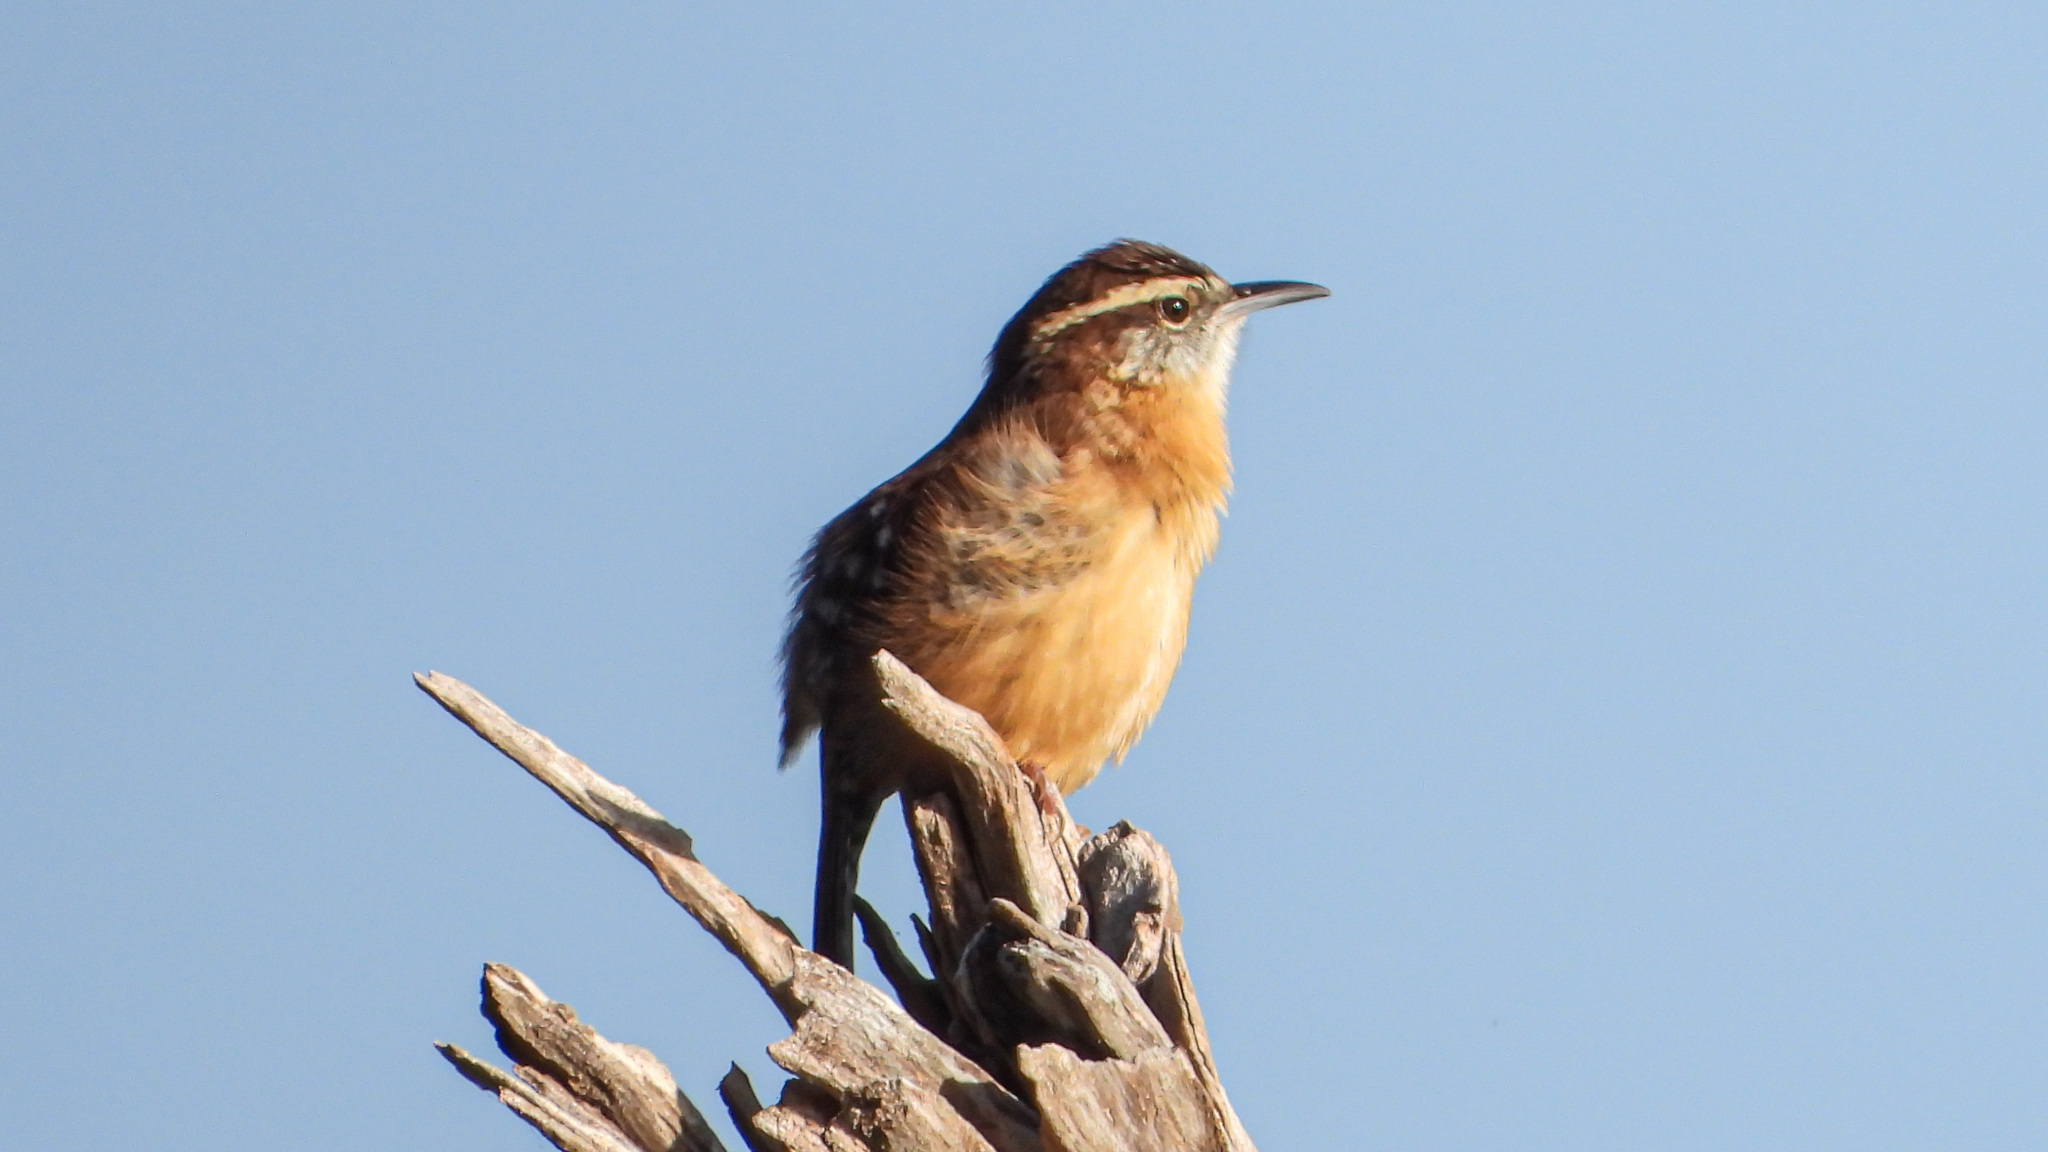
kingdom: Animalia
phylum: Chordata
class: Aves
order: Passeriformes
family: Troglodytidae
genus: Thryothorus
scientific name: Thryothorus ludovicianus
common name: Carolina wren
